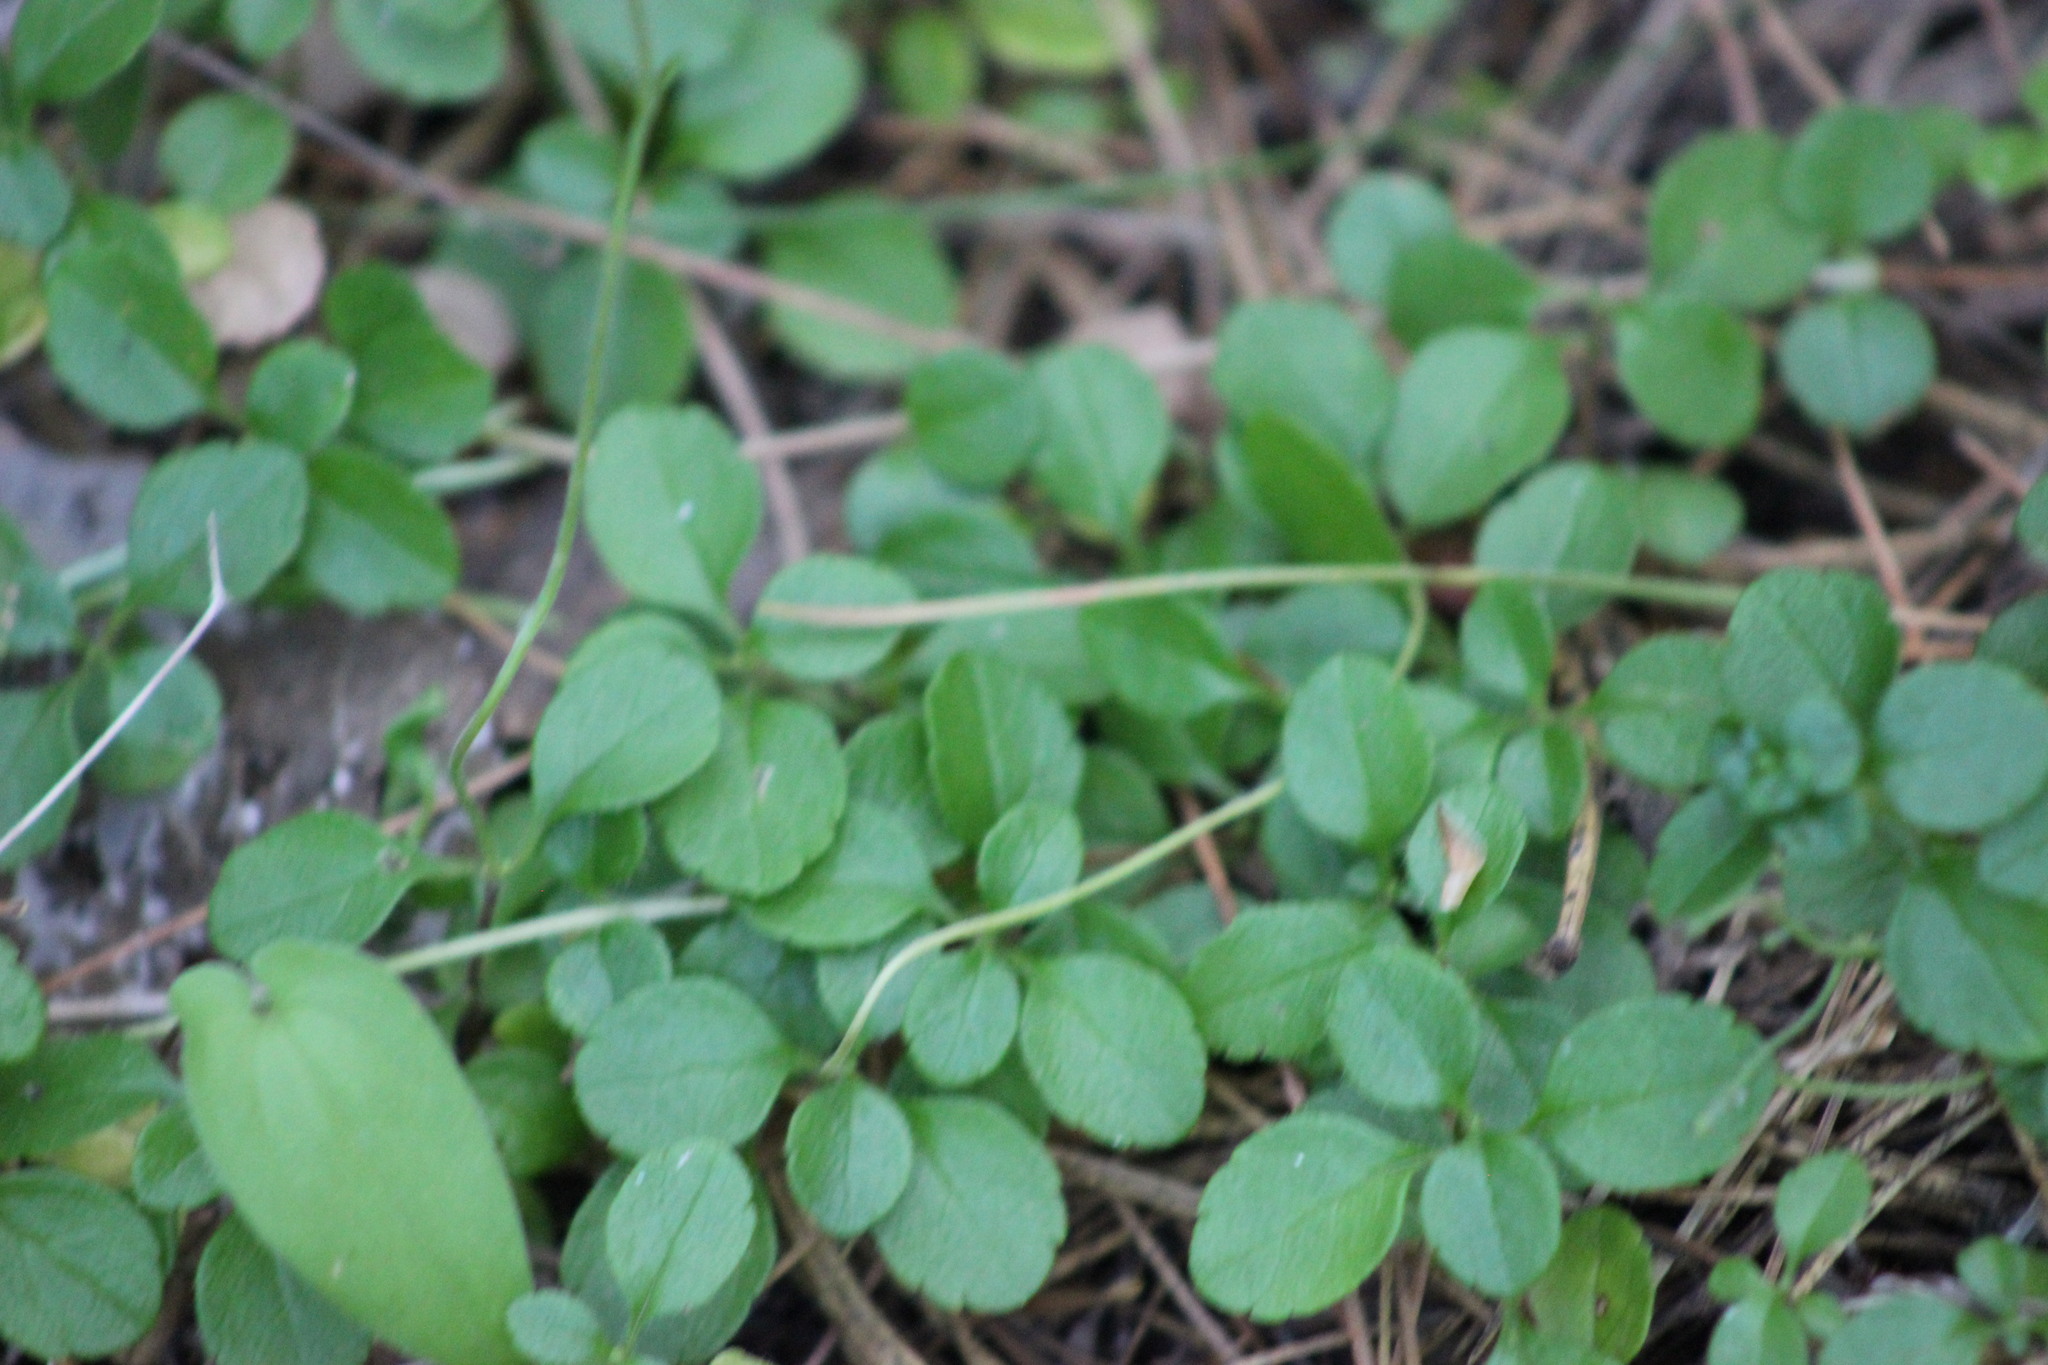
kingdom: Plantae
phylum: Tracheophyta
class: Magnoliopsida
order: Dipsacales
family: Caprifoliaceae
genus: Linnaea
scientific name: Linnaea borealis
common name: Twinflower
